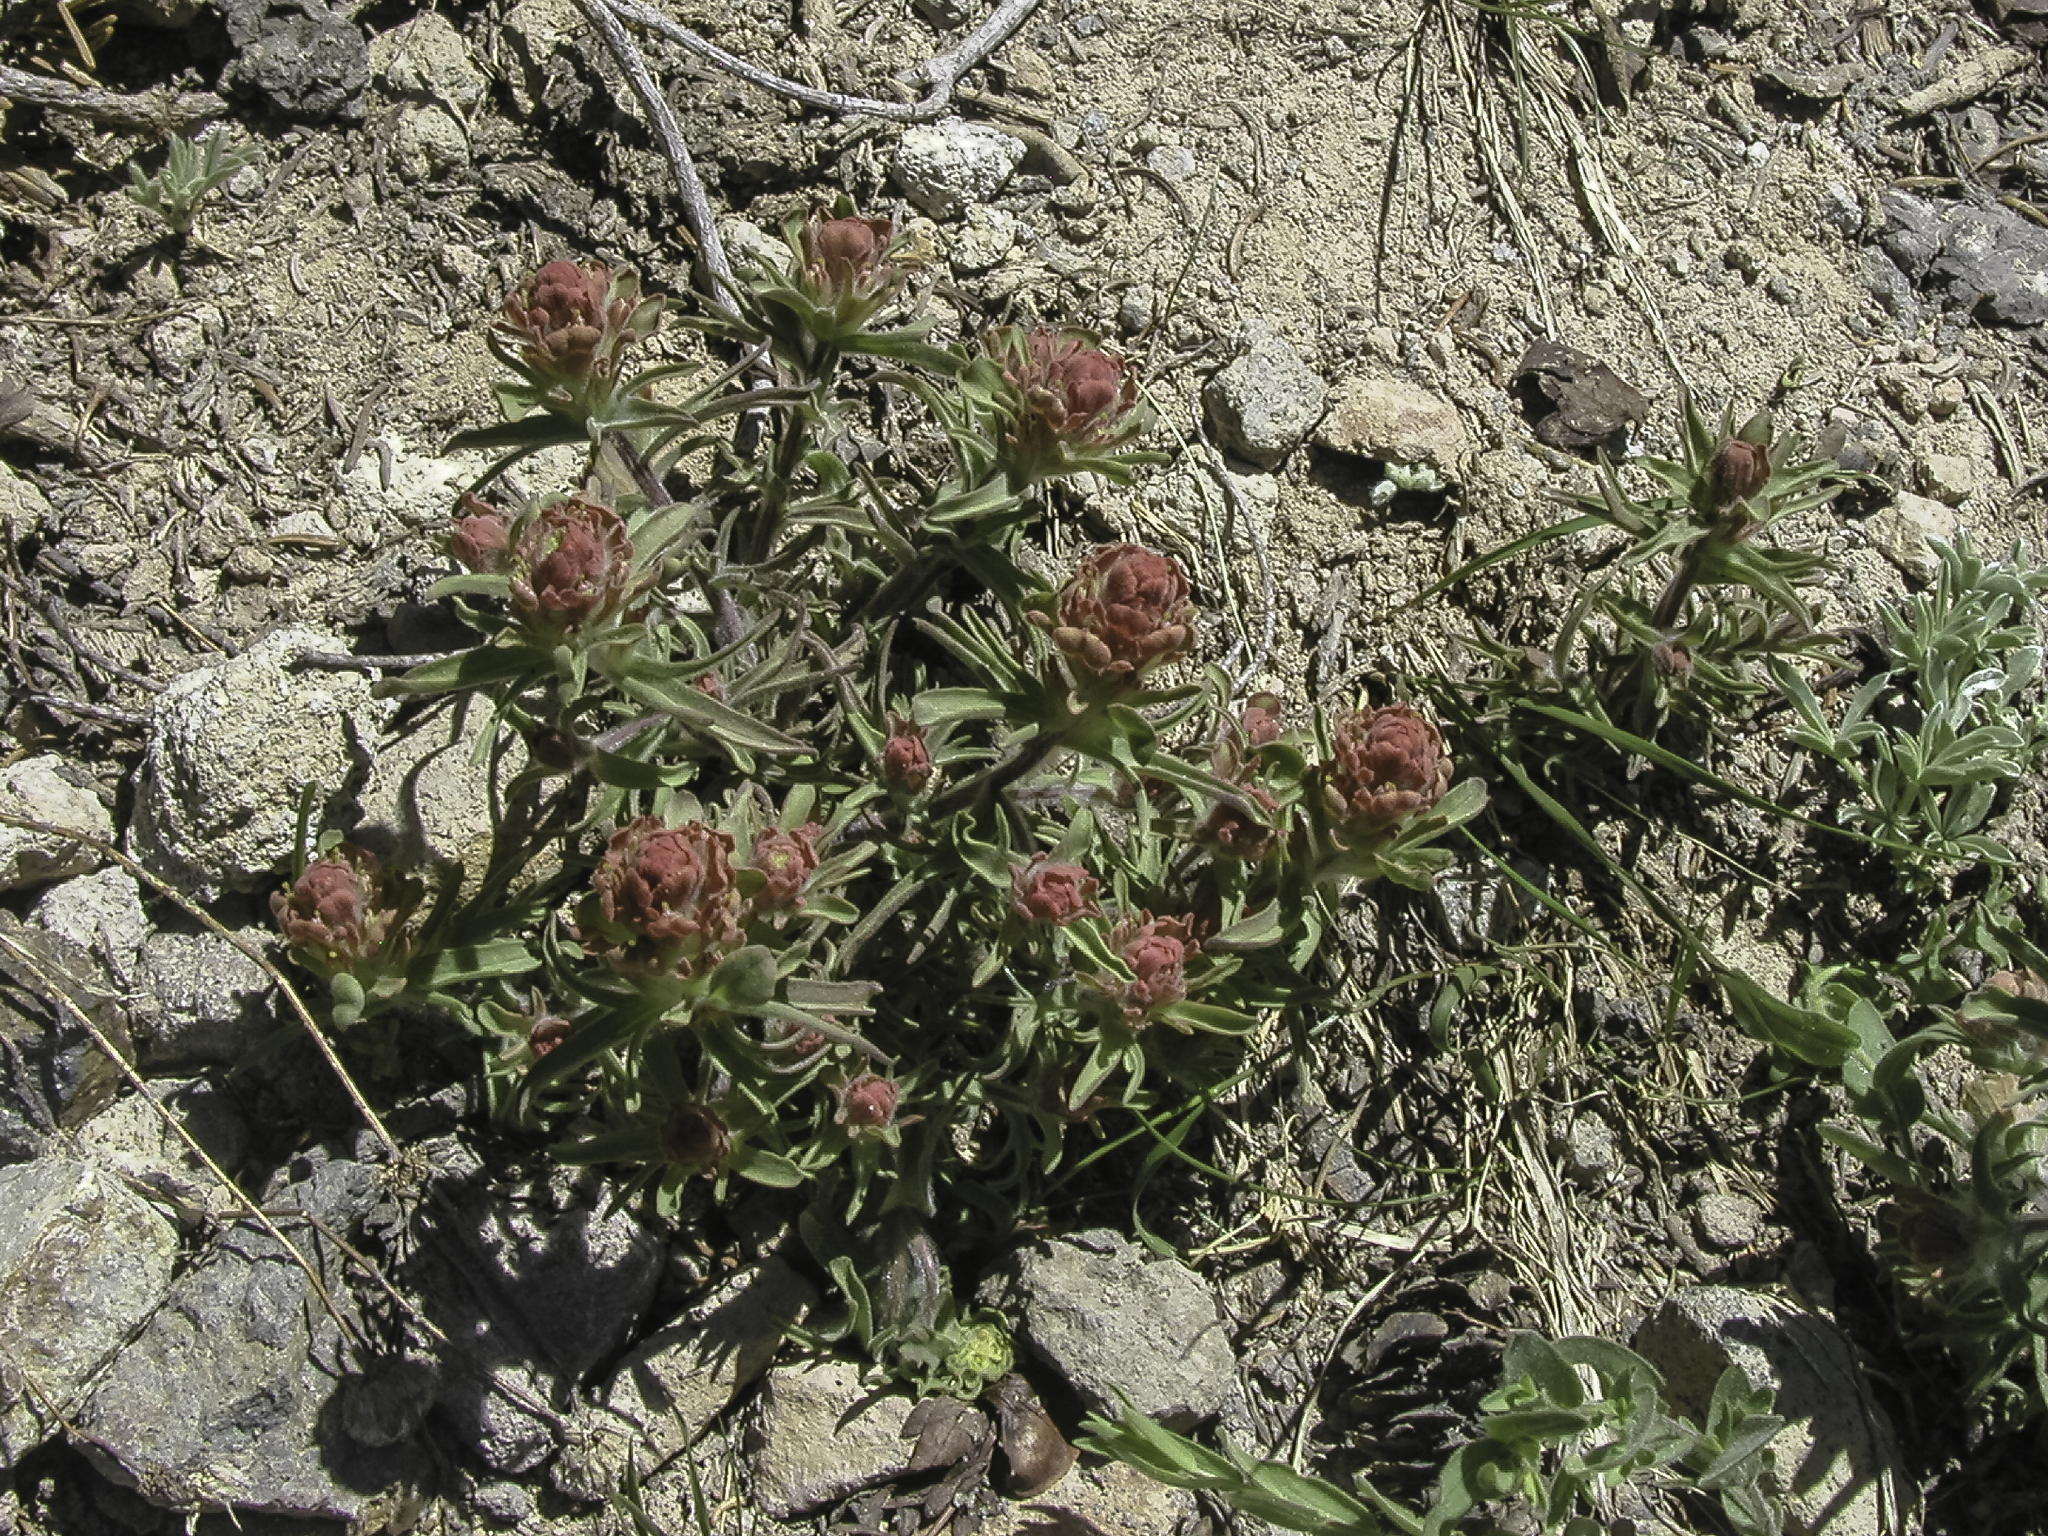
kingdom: Plantae
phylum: Tracheophyta
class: Magnoliopsida
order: Lamiales
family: Orobanchaceae
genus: Castilleja
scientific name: Castilleja arachnoidea
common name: Cobwebby indian paintbrush
